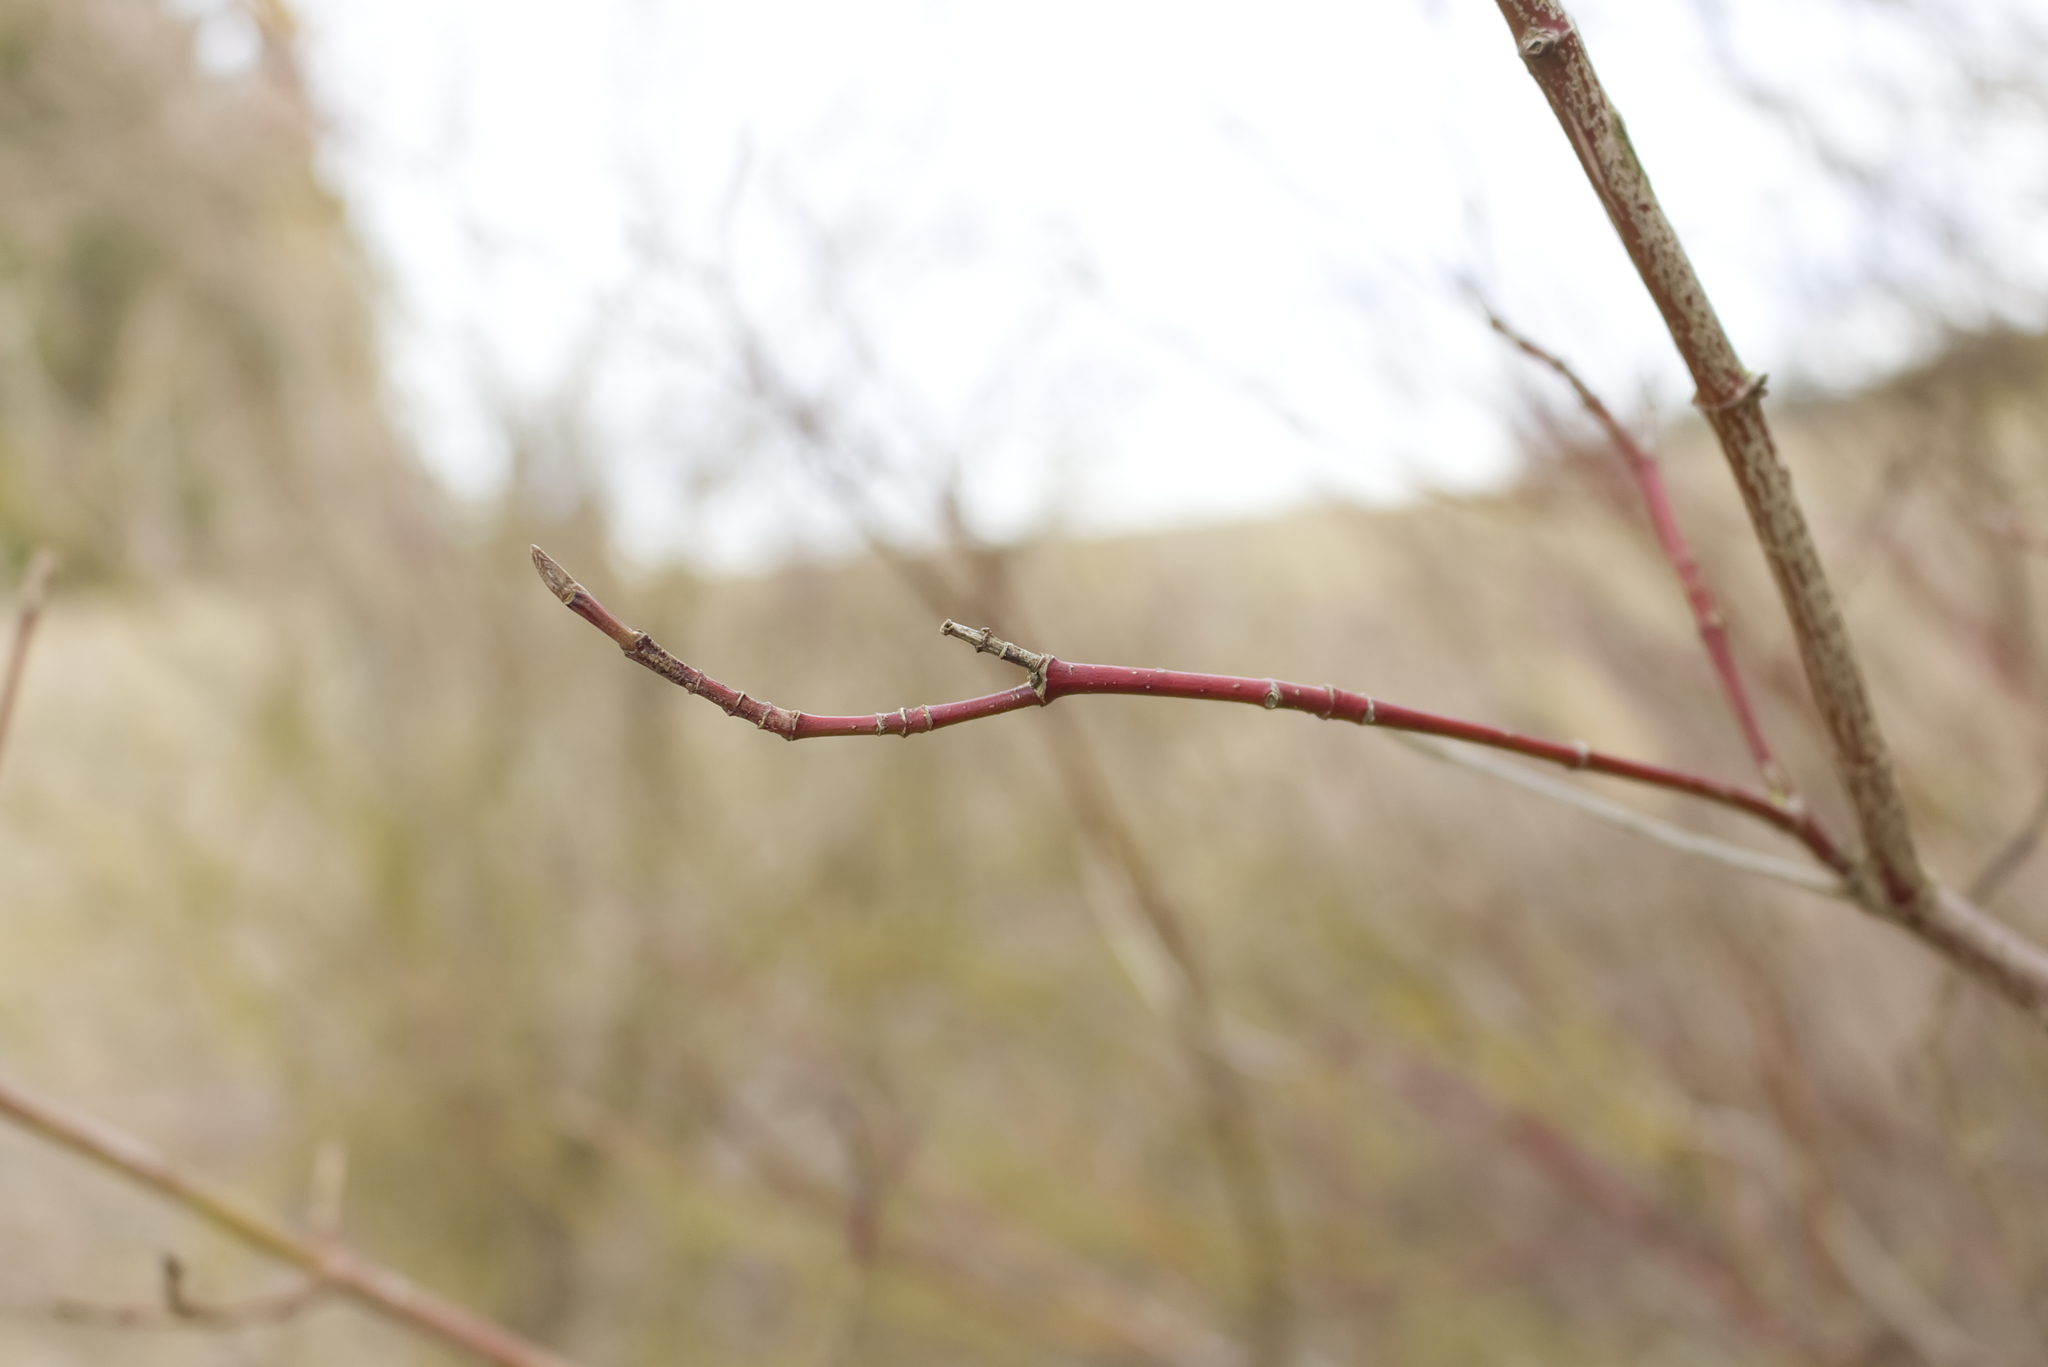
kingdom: Plantae
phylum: Tracheophyta
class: Magnoliopsida
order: Cornales
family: Cornaceae
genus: Cornus
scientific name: Cornus sanguinea
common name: Dogwood
